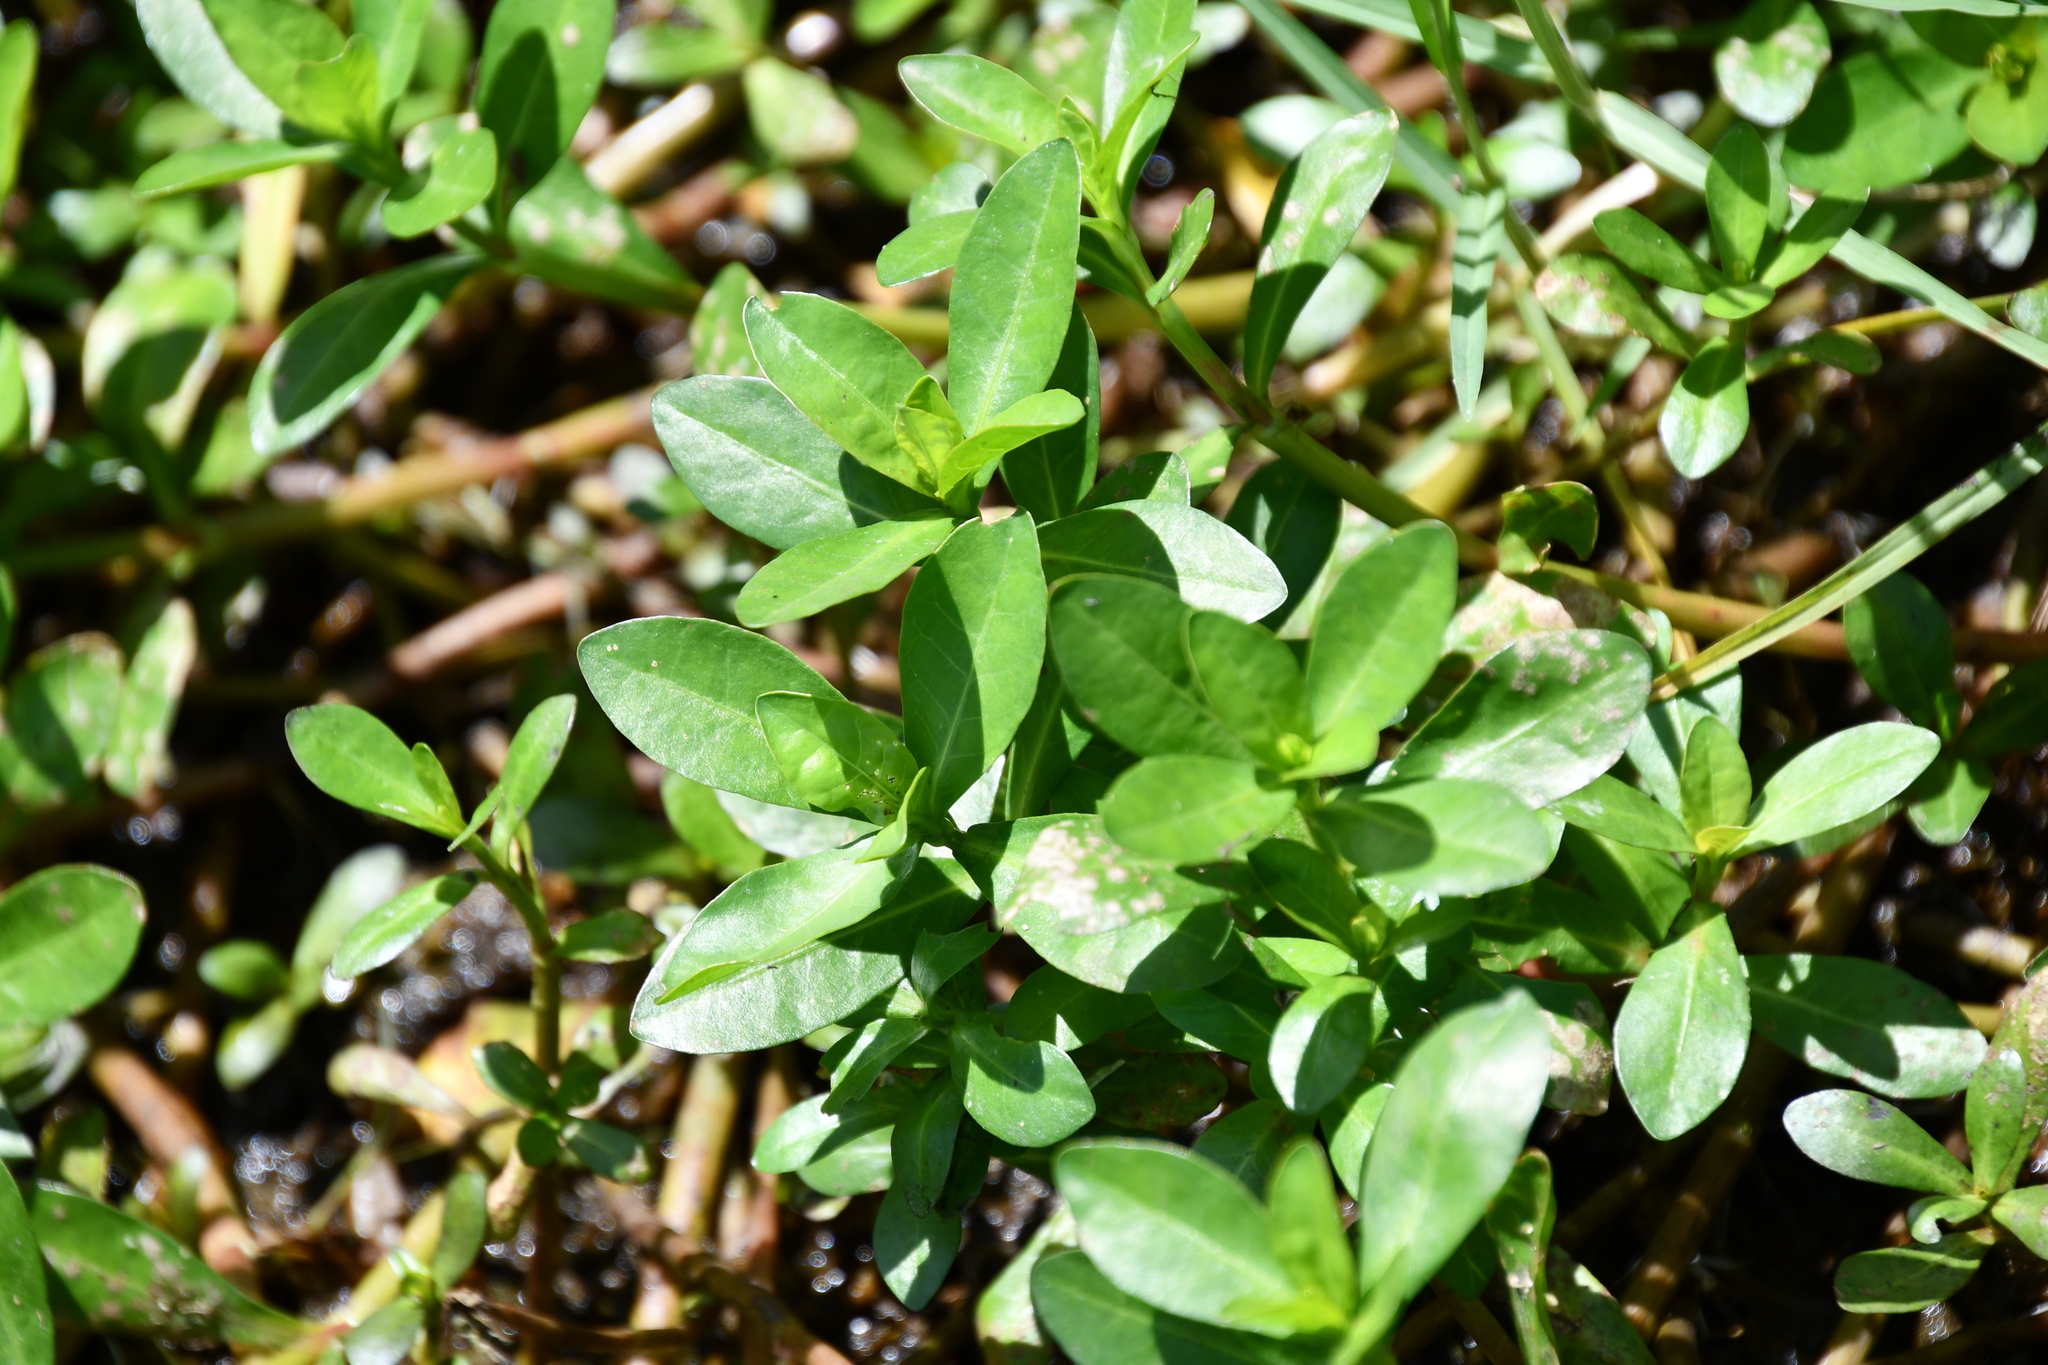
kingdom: Plantae
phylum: Tracheophyta
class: Magnoliopsida
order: Caryophyllales
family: Amaranthaceae
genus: Alternanthera
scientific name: Alternanthera philoxeroides
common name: Alligatorweed
